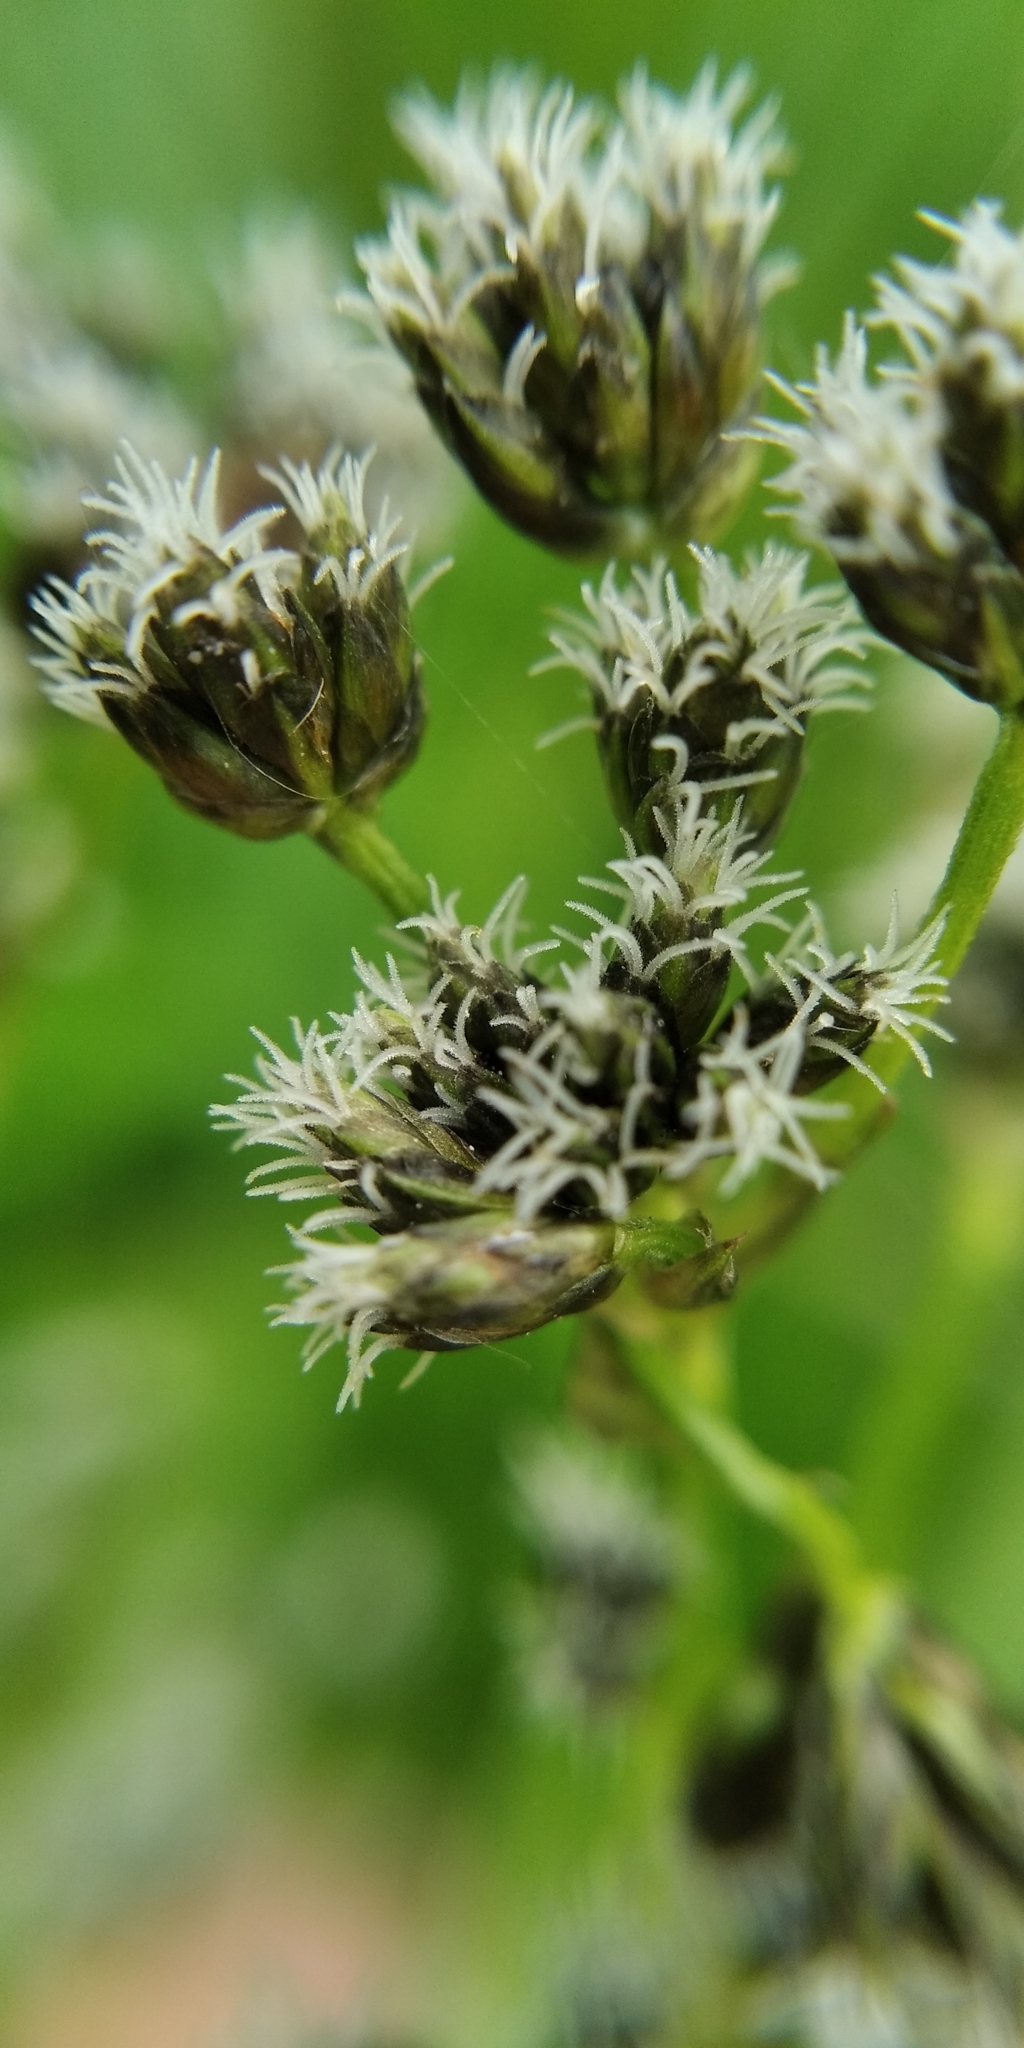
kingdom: Plantae
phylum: Tracheophyta
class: Liliopsida
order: Poales
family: Cyperaceae
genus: Scirpus
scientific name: Scirpus sylvaticus
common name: Wood club-rush
